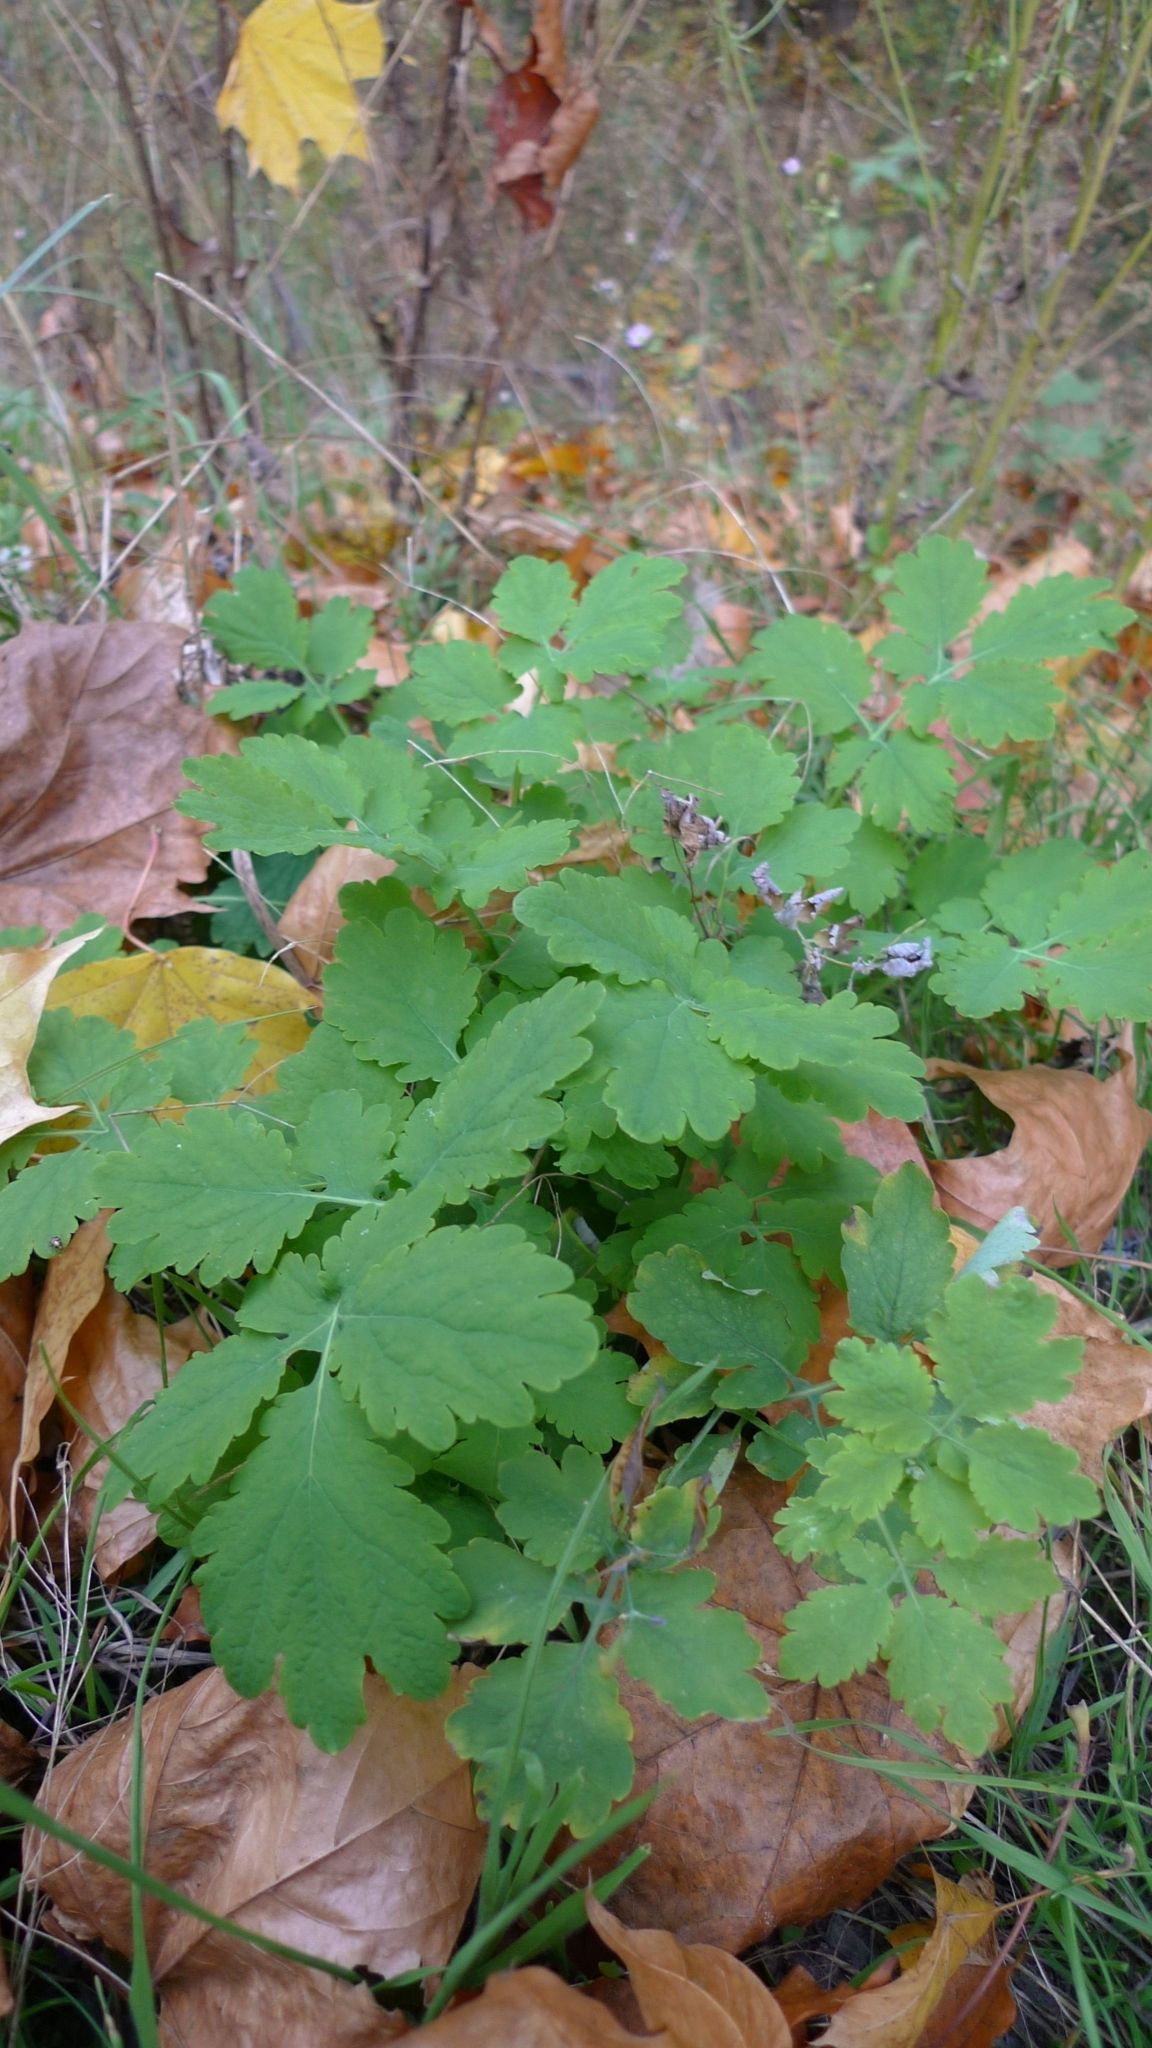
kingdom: Plantae
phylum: Tracheophyta
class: Magnoliopsida
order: Ranunculales
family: Papaveraceae
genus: Chelidonium
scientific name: Chelidonium majus
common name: Greater celandine
